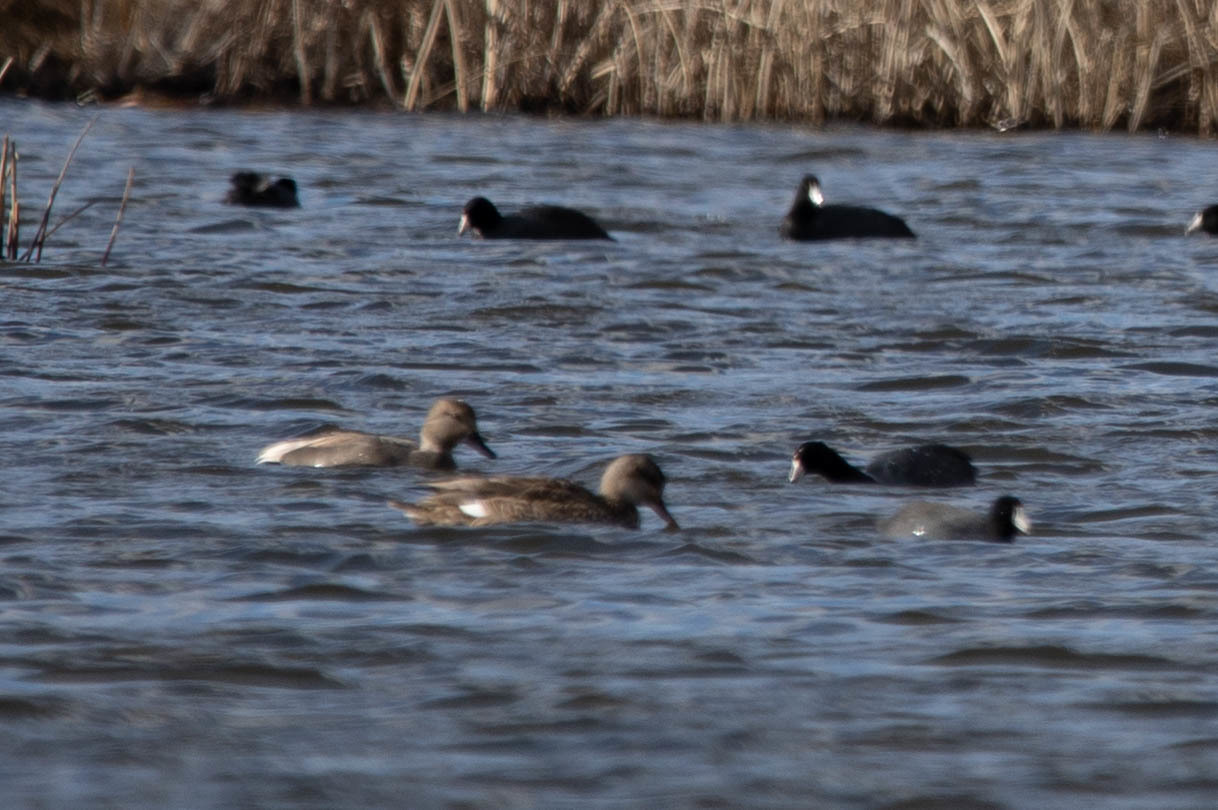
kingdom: Animalia
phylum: Chordata
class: Aves
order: Anseriformes
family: Anatidae
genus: Mareca
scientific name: Mareca strepera
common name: Gadwall
